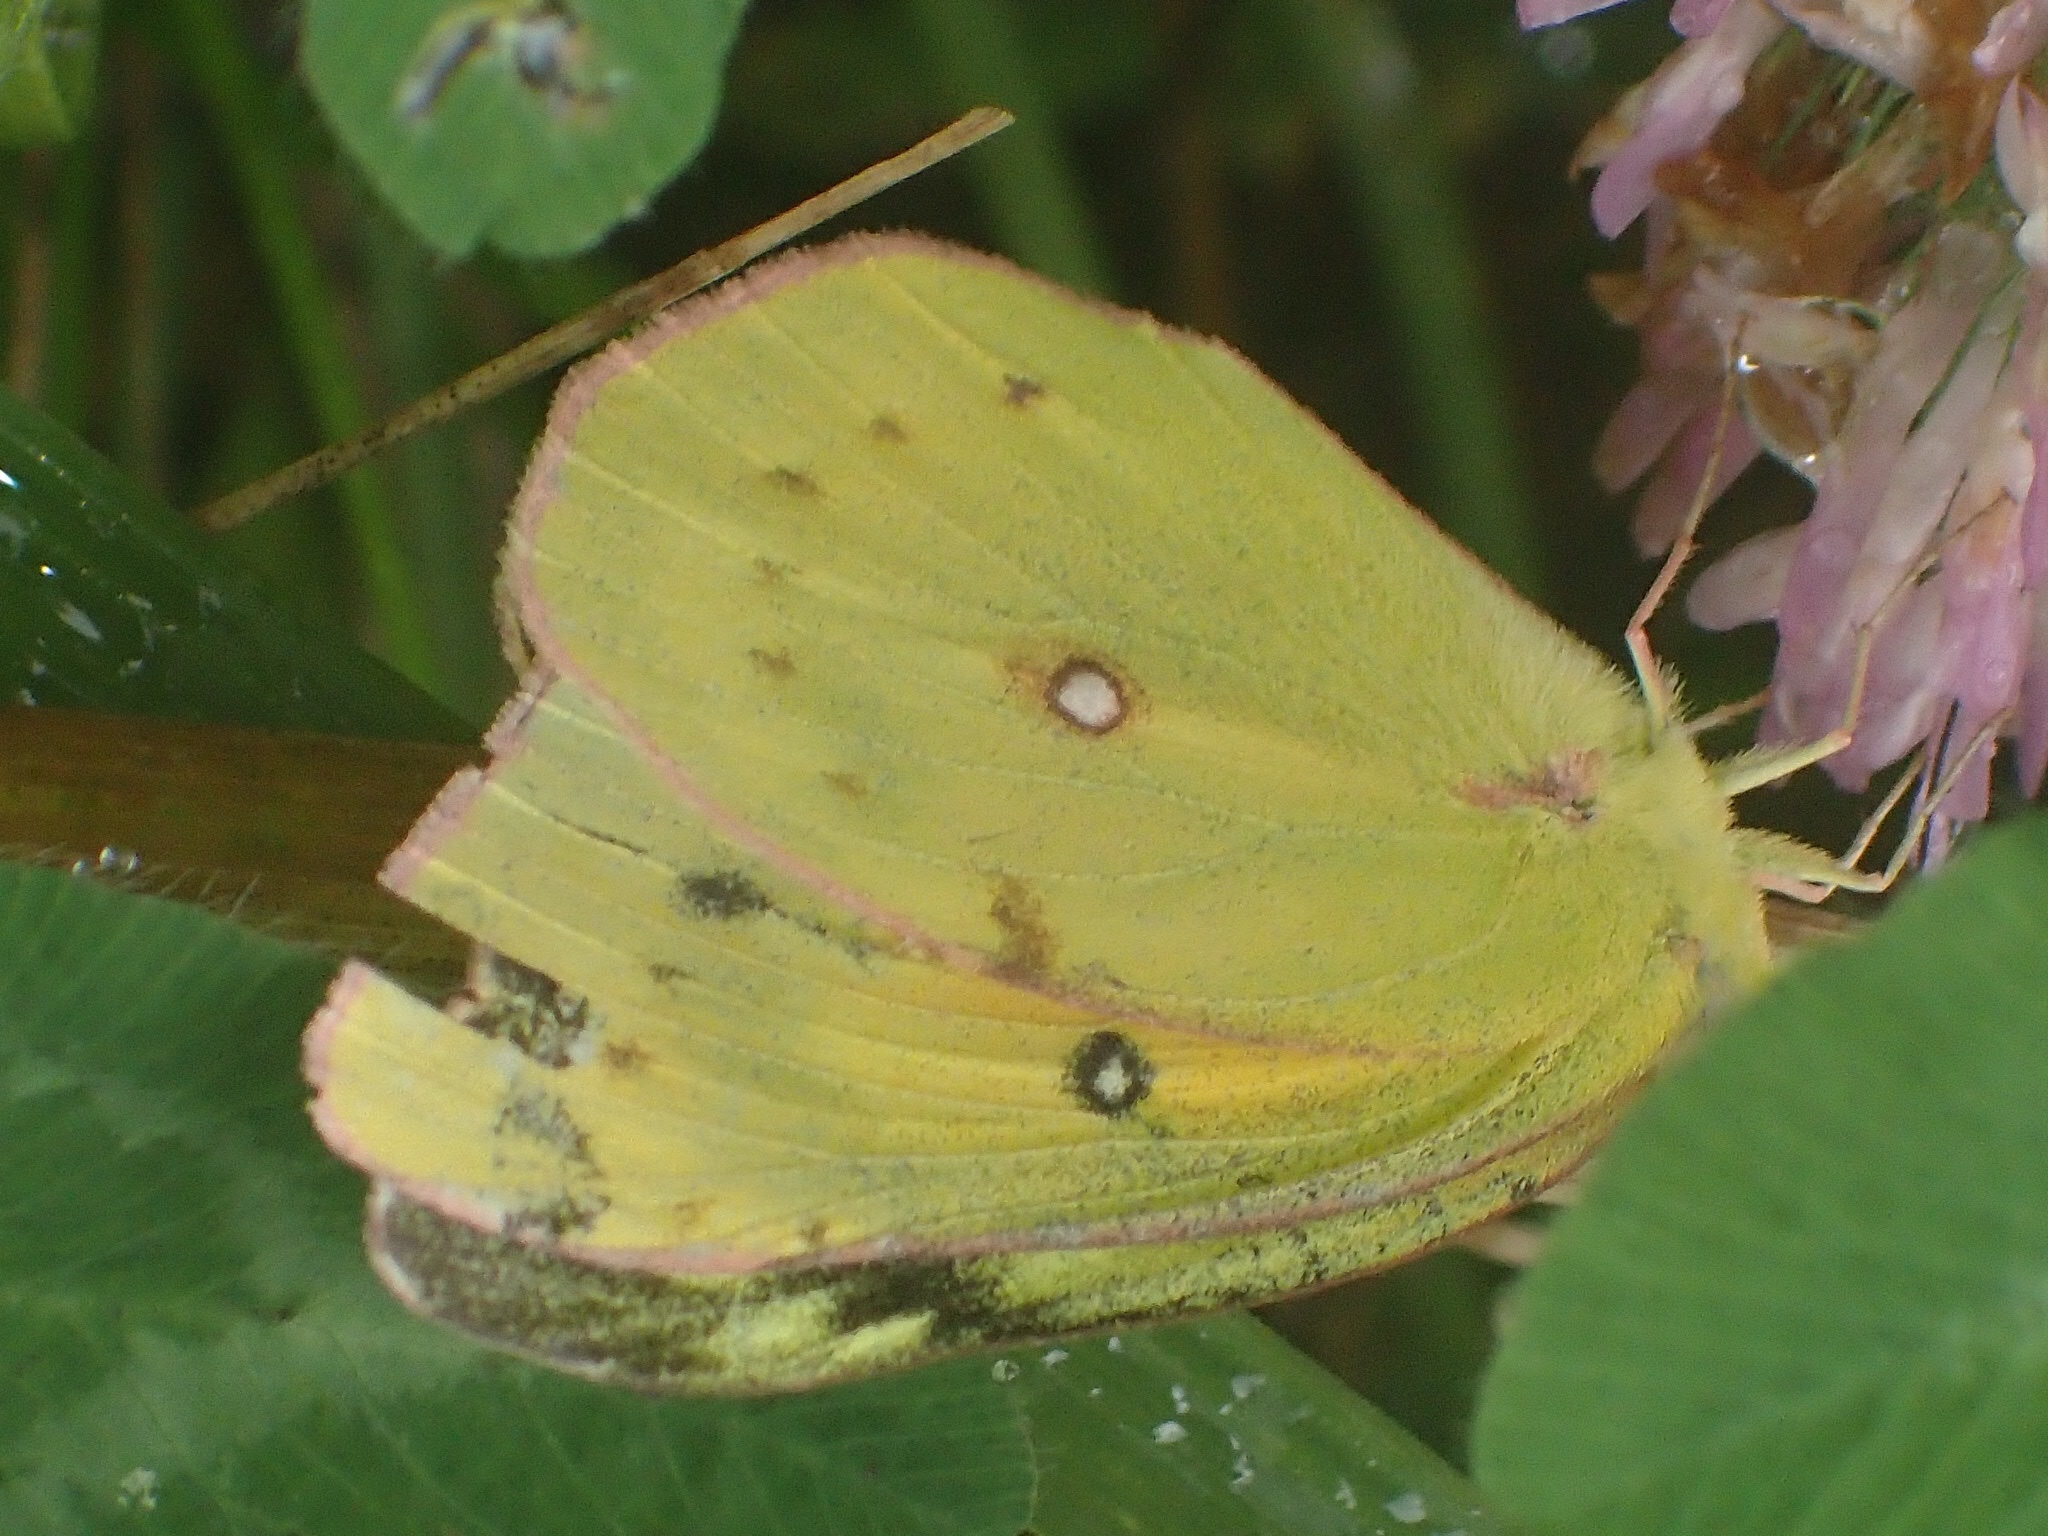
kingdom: Animalia
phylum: Arthropoda
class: Insecta
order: Lepidoptera
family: Pieridae
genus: Colias
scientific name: Colias eurytheme
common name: Alfalfa butterfly
